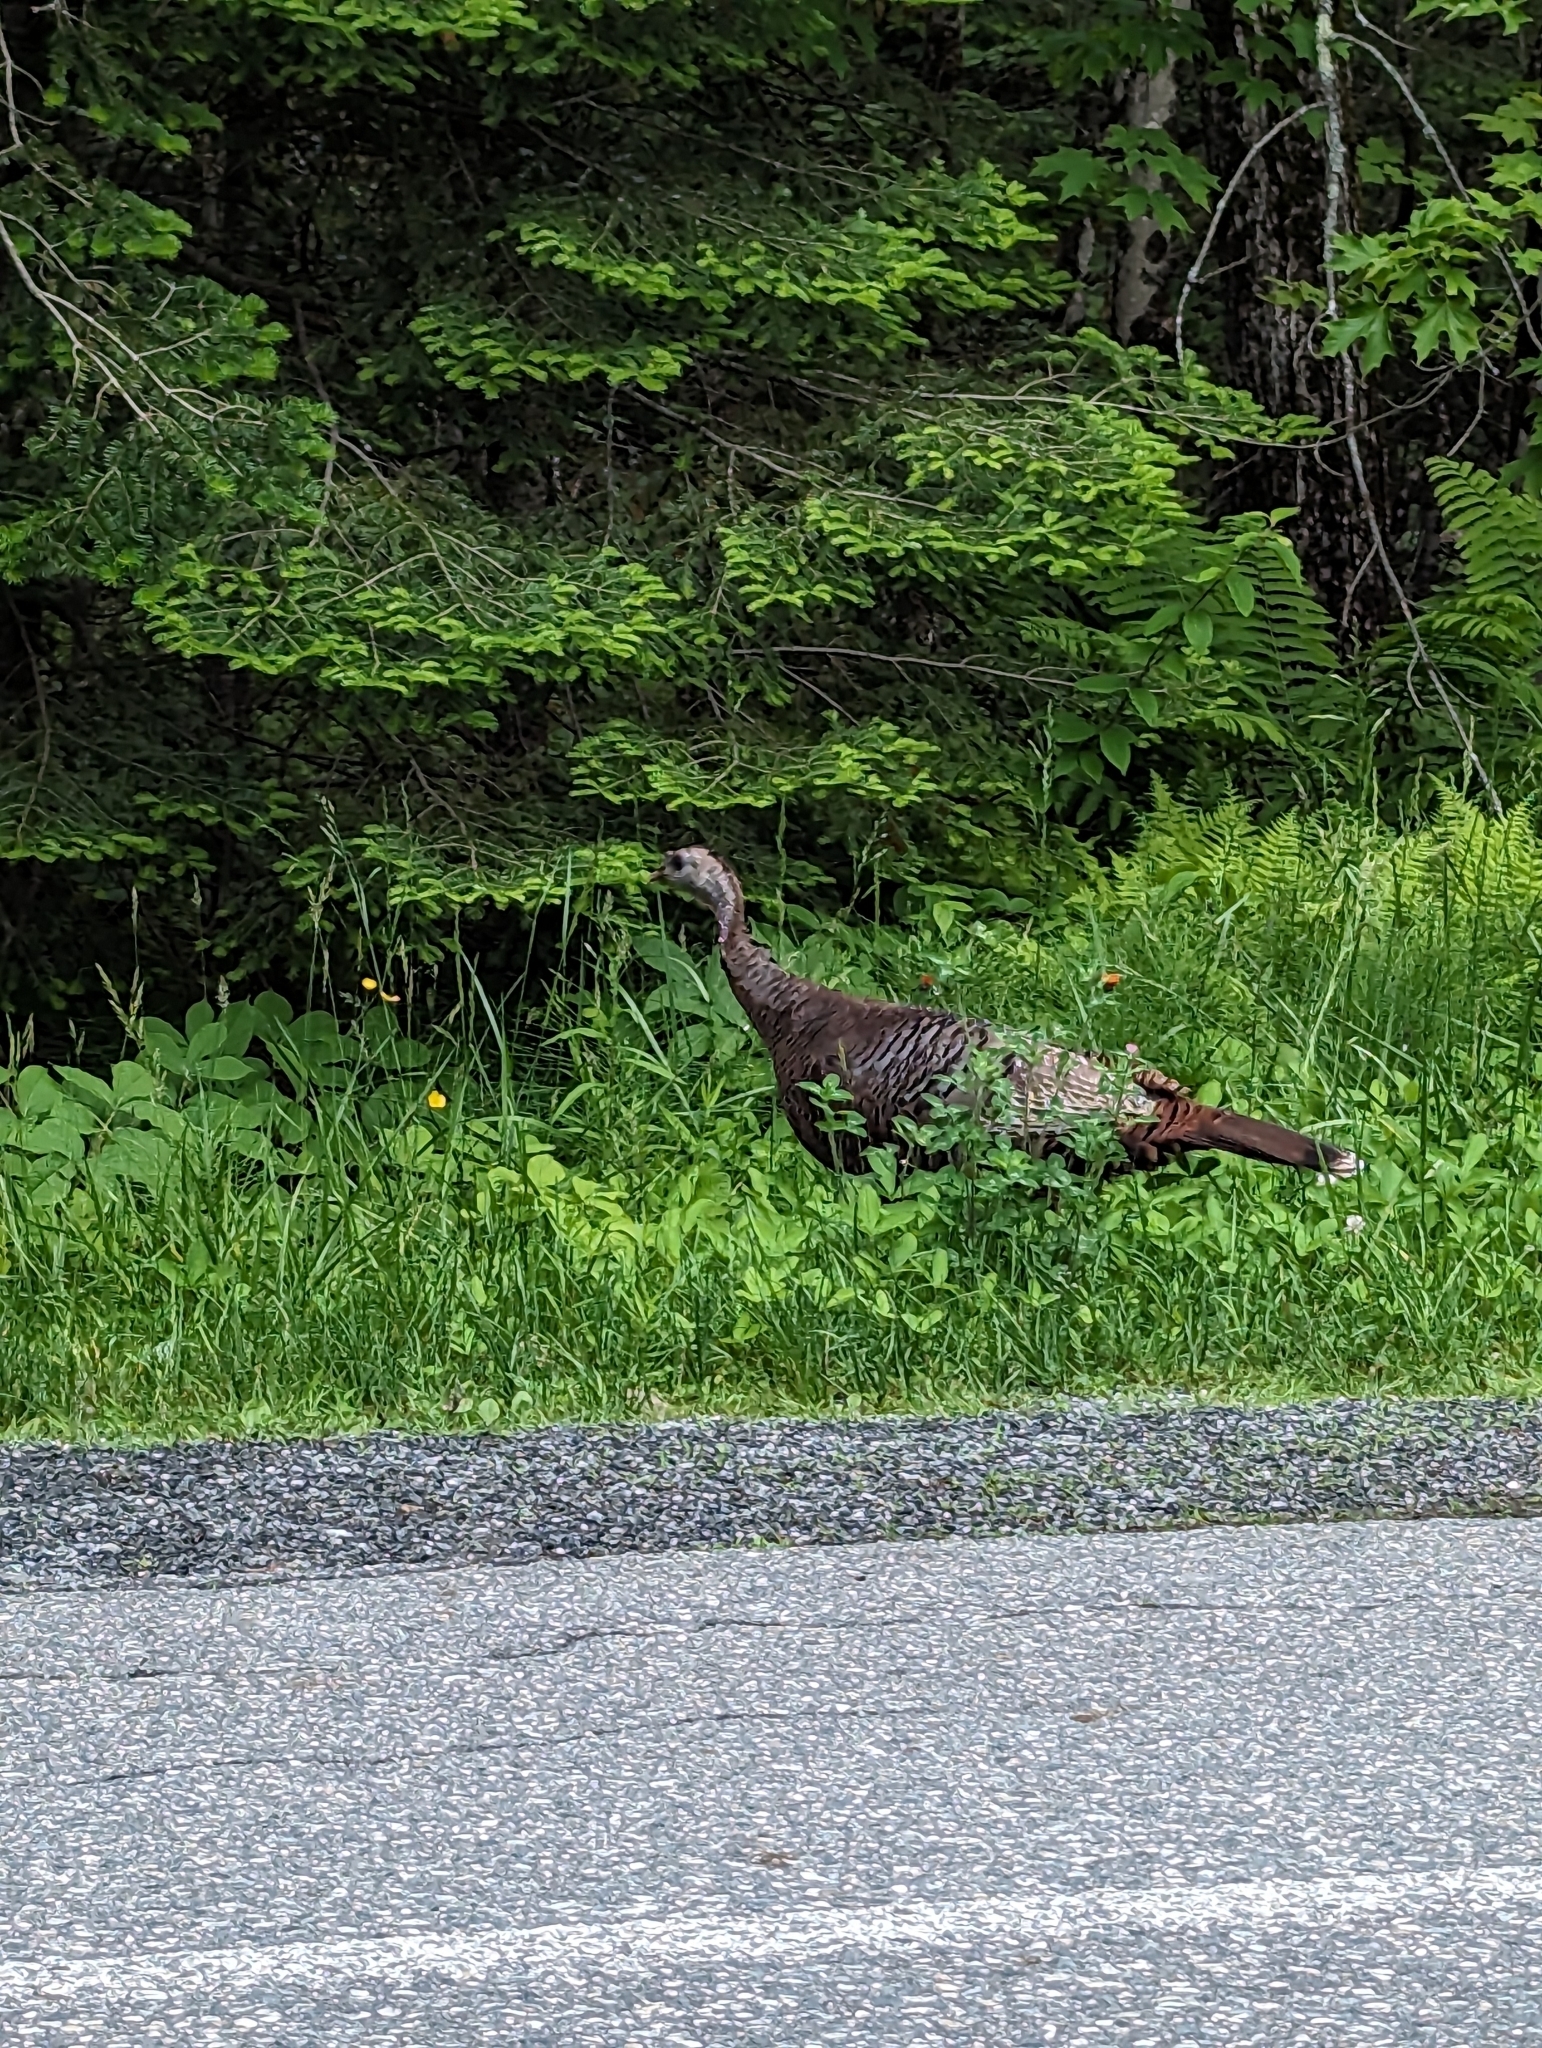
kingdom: Animalia
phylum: Chordata
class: Aves
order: Galliformes
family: Phasianidae
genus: Meleagris
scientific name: Meleagris gallopavo
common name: Wild turkey
